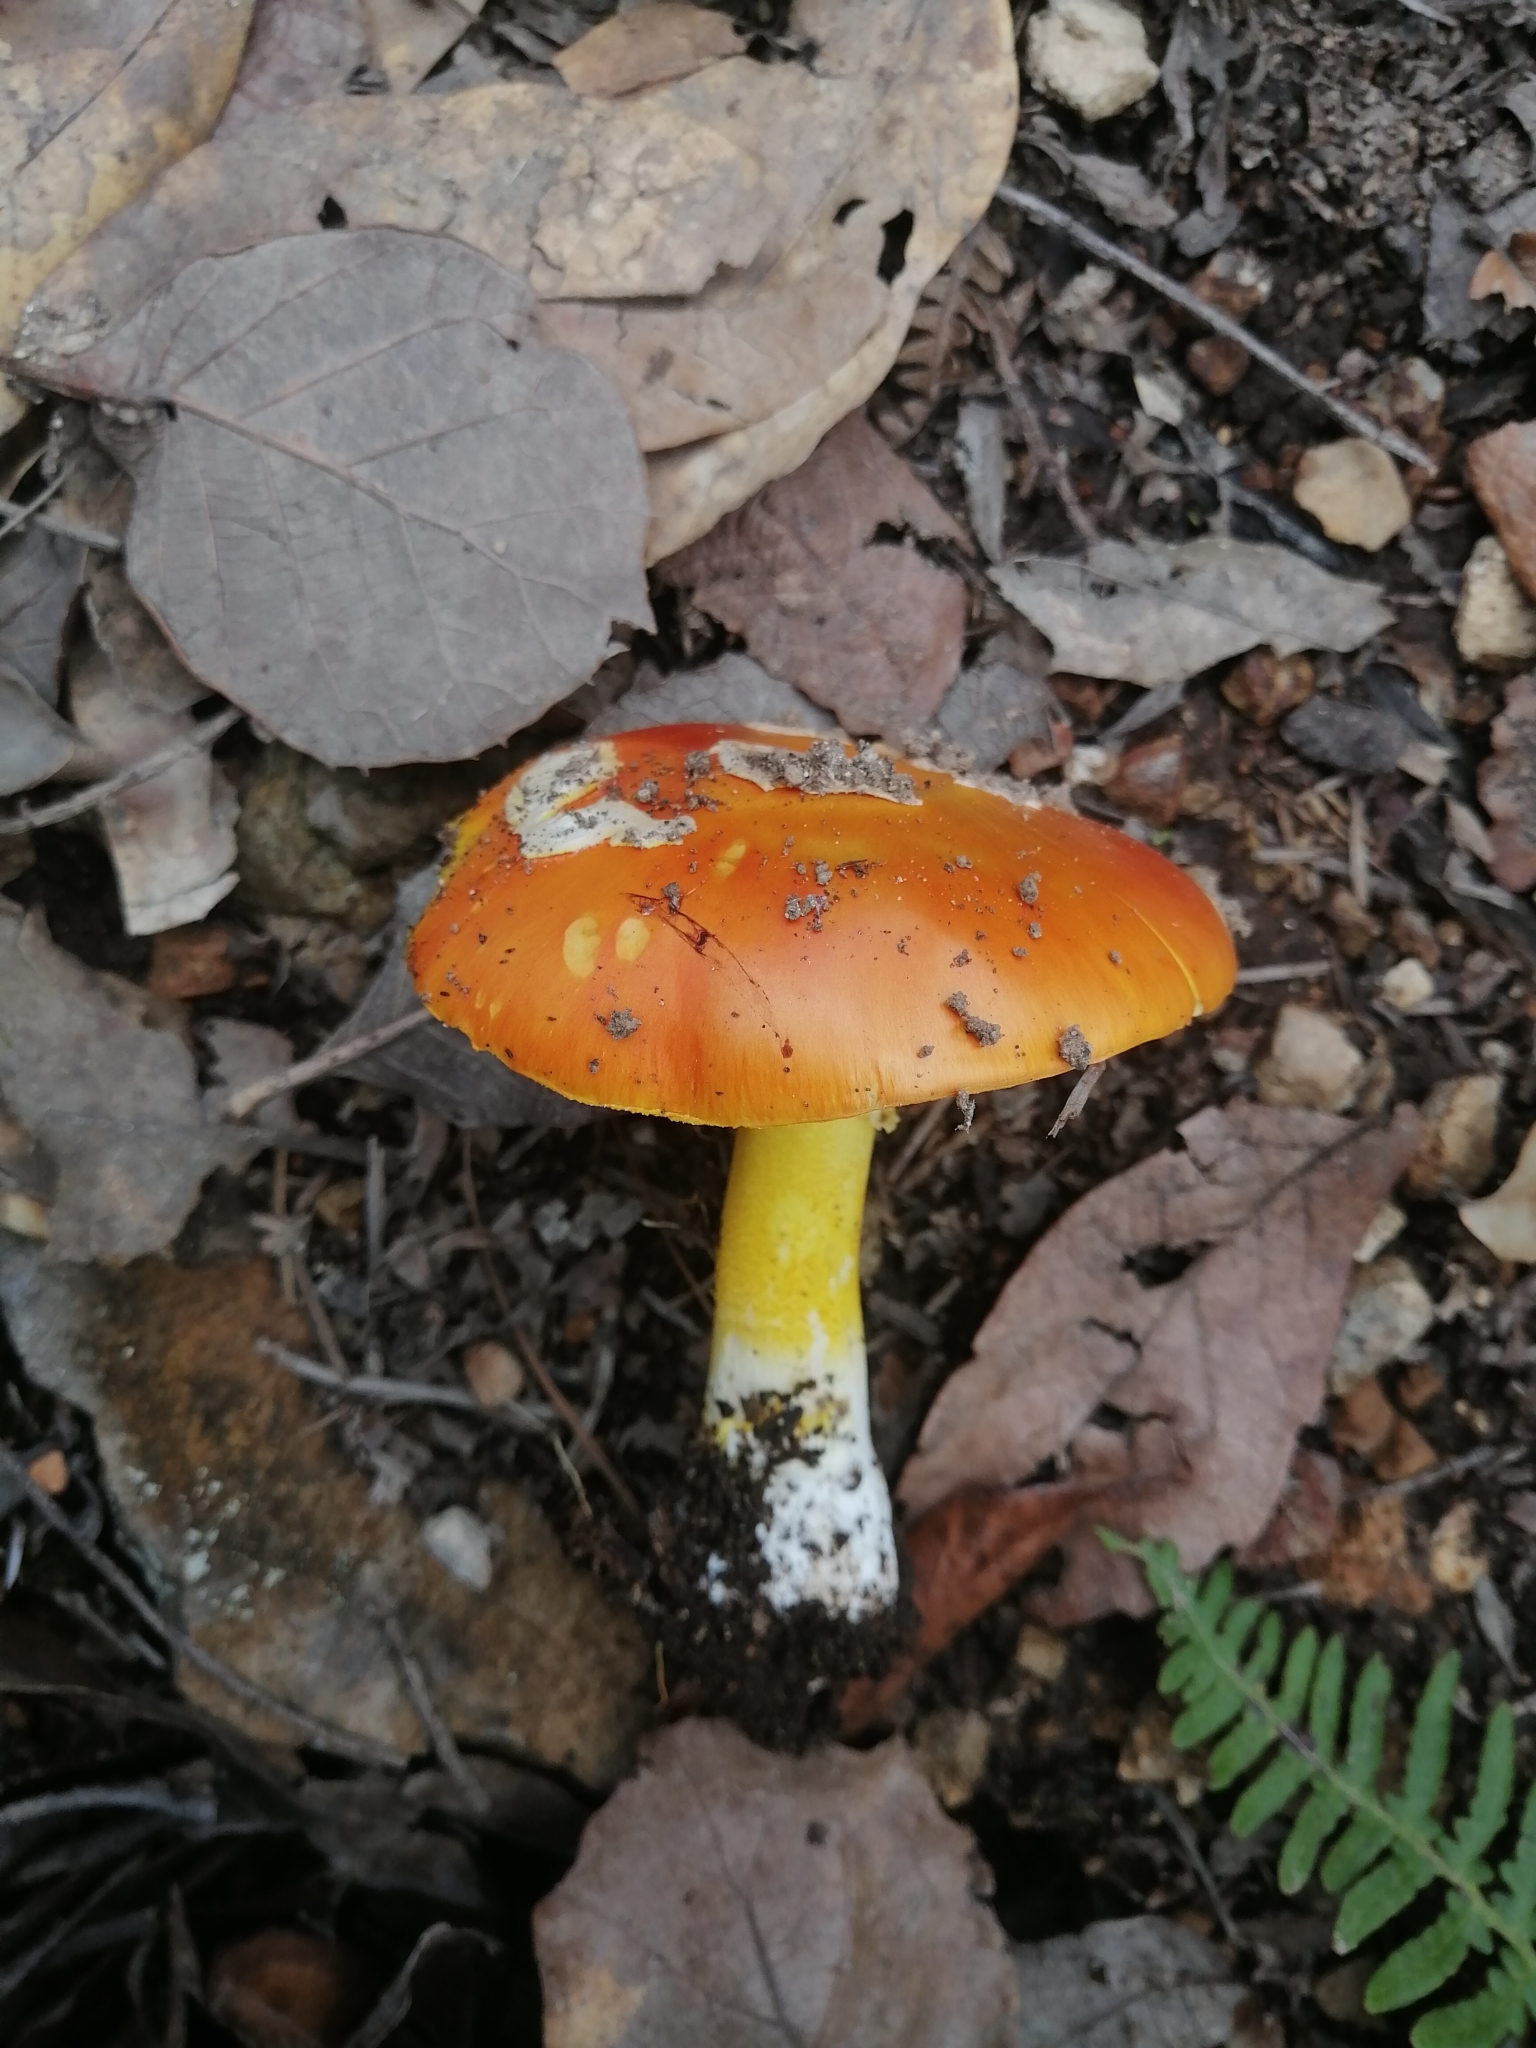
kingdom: Fungi
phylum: Basidiomycota
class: Agaricomycetes
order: Agaricales
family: Amanitaceae
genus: Amanita
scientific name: Amanita flavoconia
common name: Yellow patches
